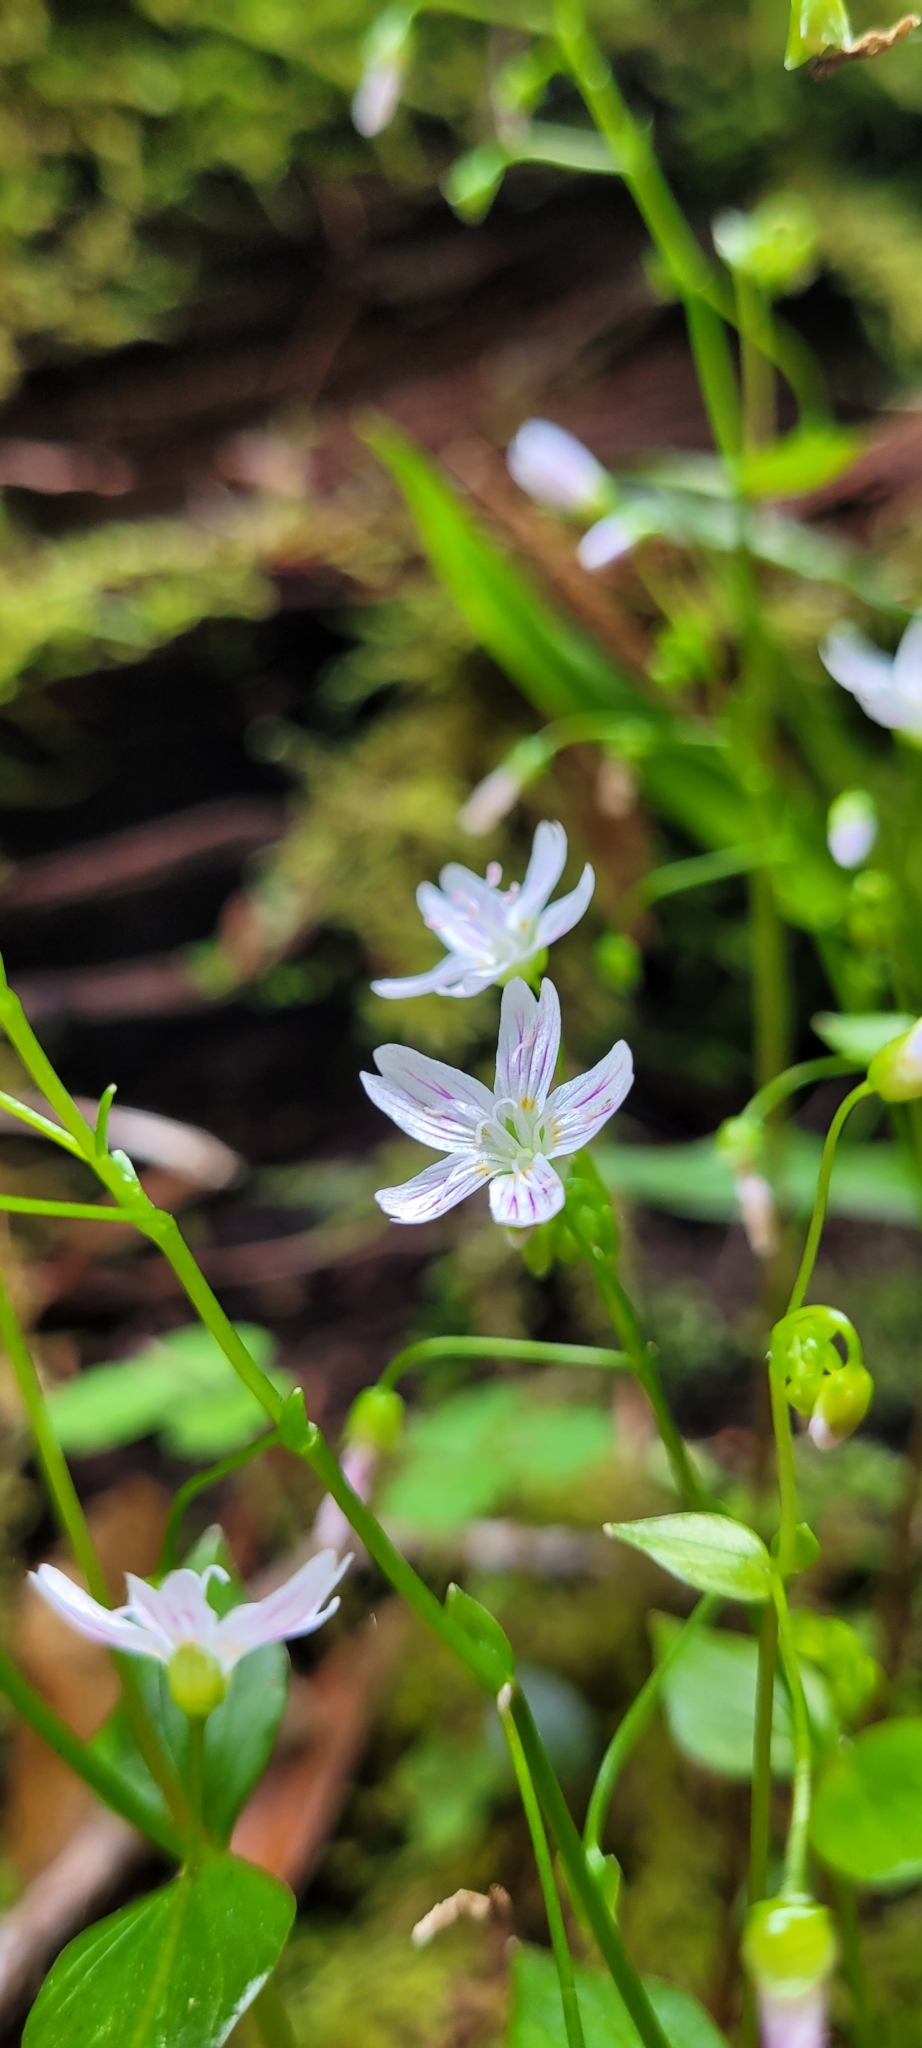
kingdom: Plantae
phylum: Tracheophyta
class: Magnoliopsida
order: Caryophyllales
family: Montiaceae
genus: Claytonia
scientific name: Claytonia perfoliata
